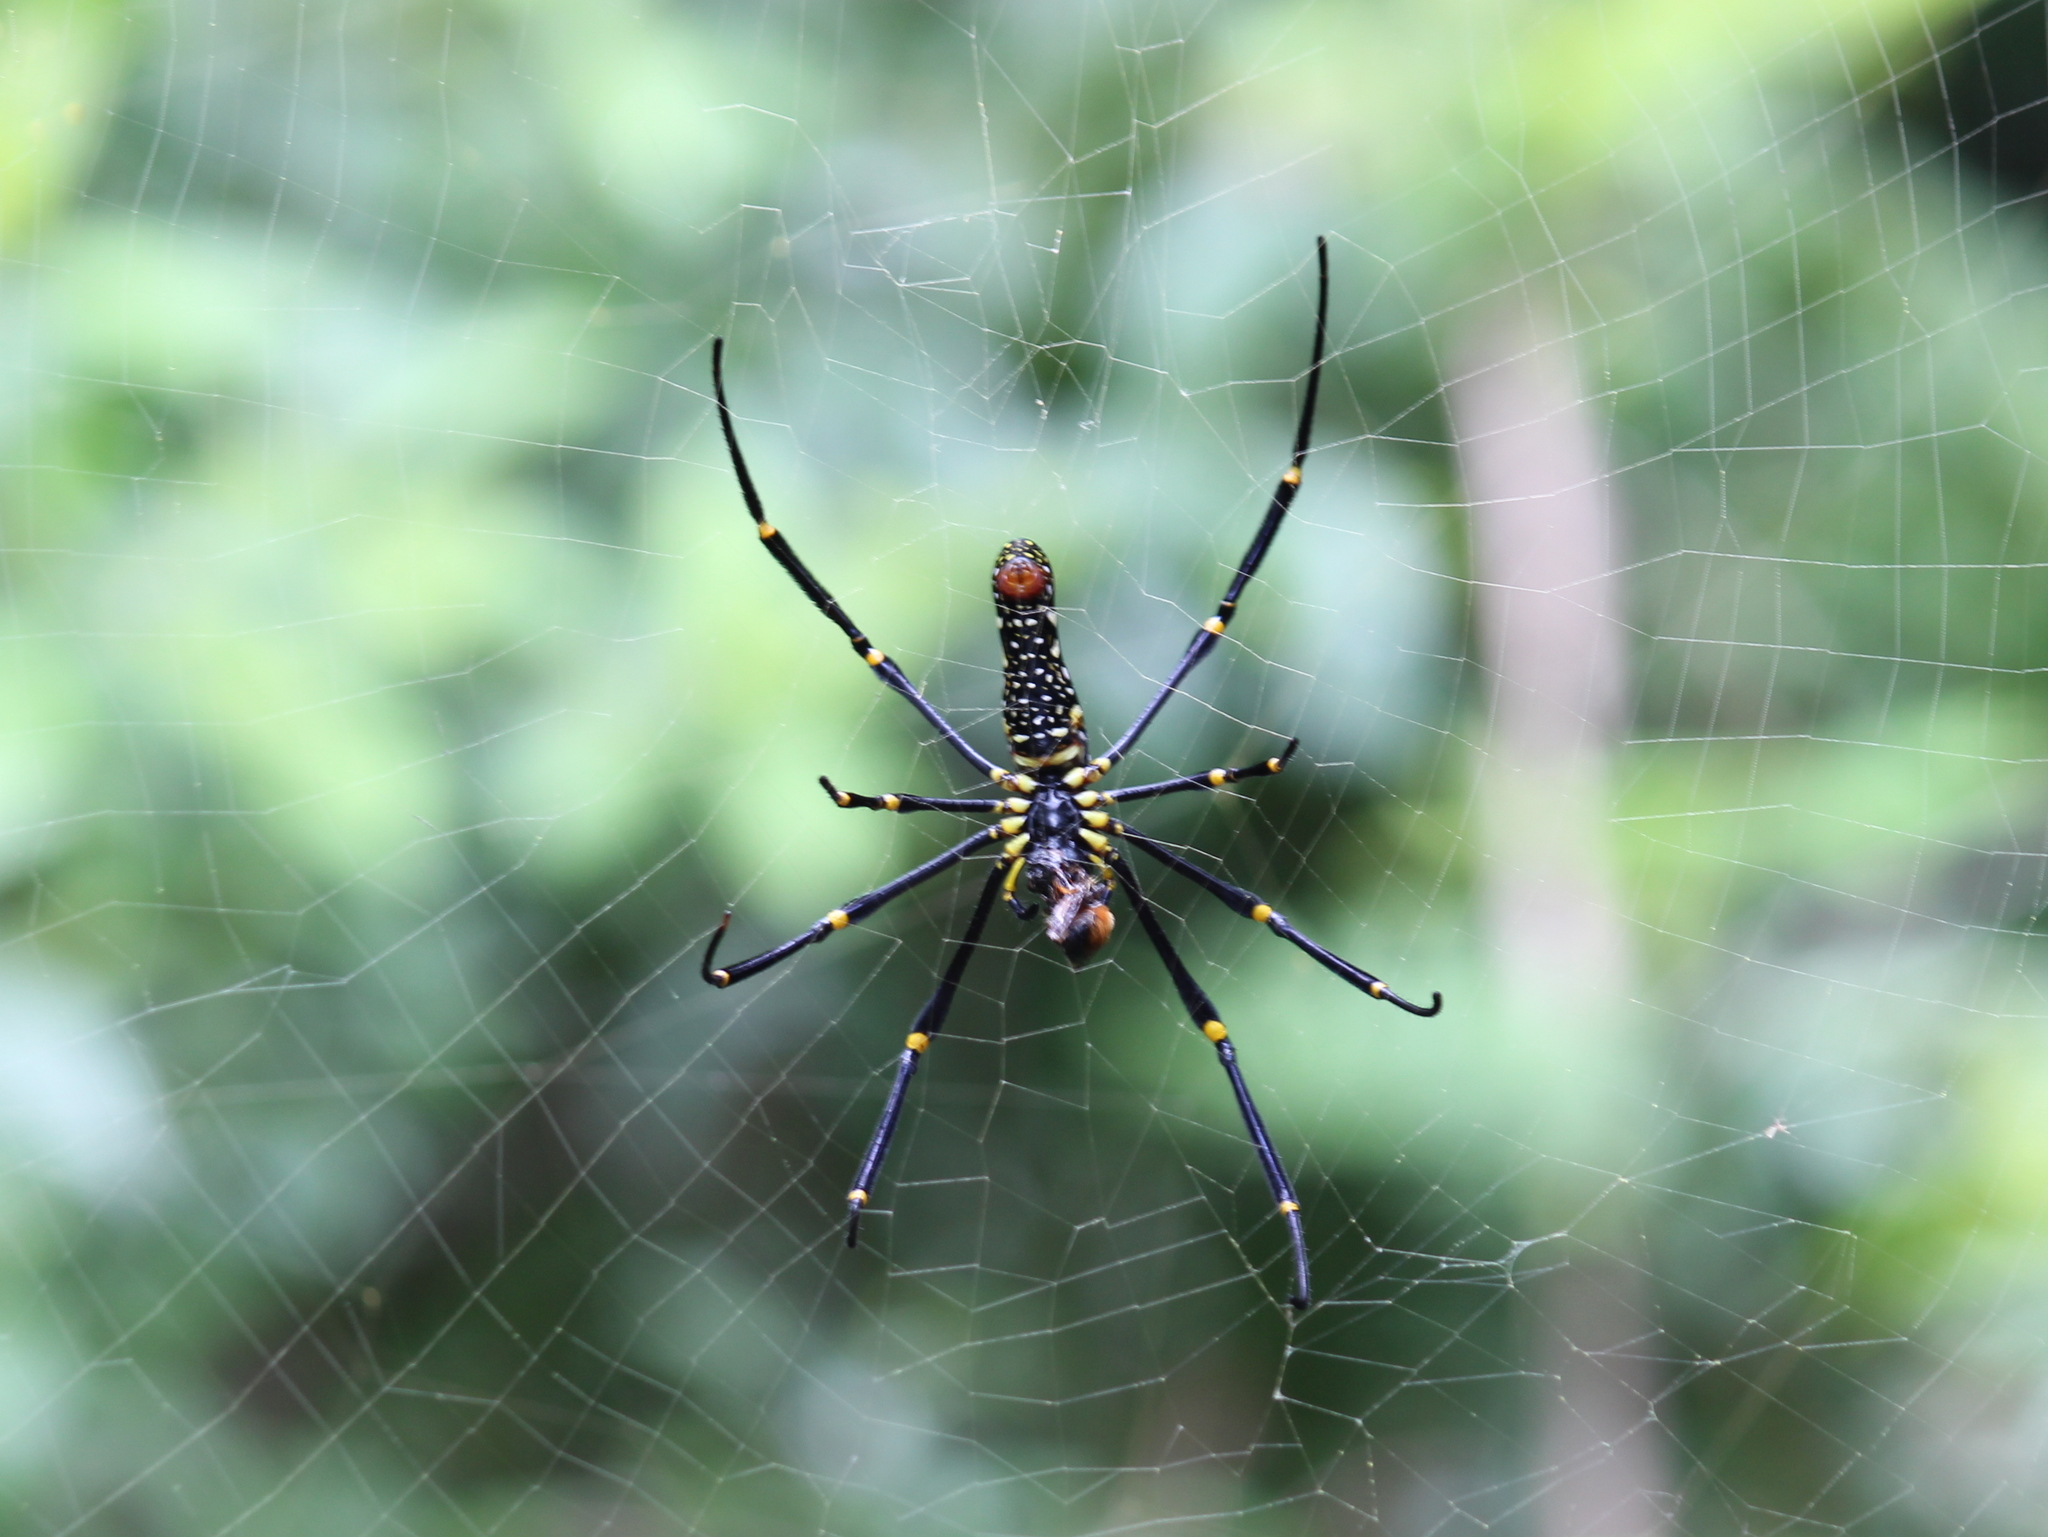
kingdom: Animalia
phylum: Arthropoda
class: Arachnida
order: Araneae
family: Araneidae
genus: Nephila
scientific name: Nephila pilipes
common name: Giant golden orb weaver
